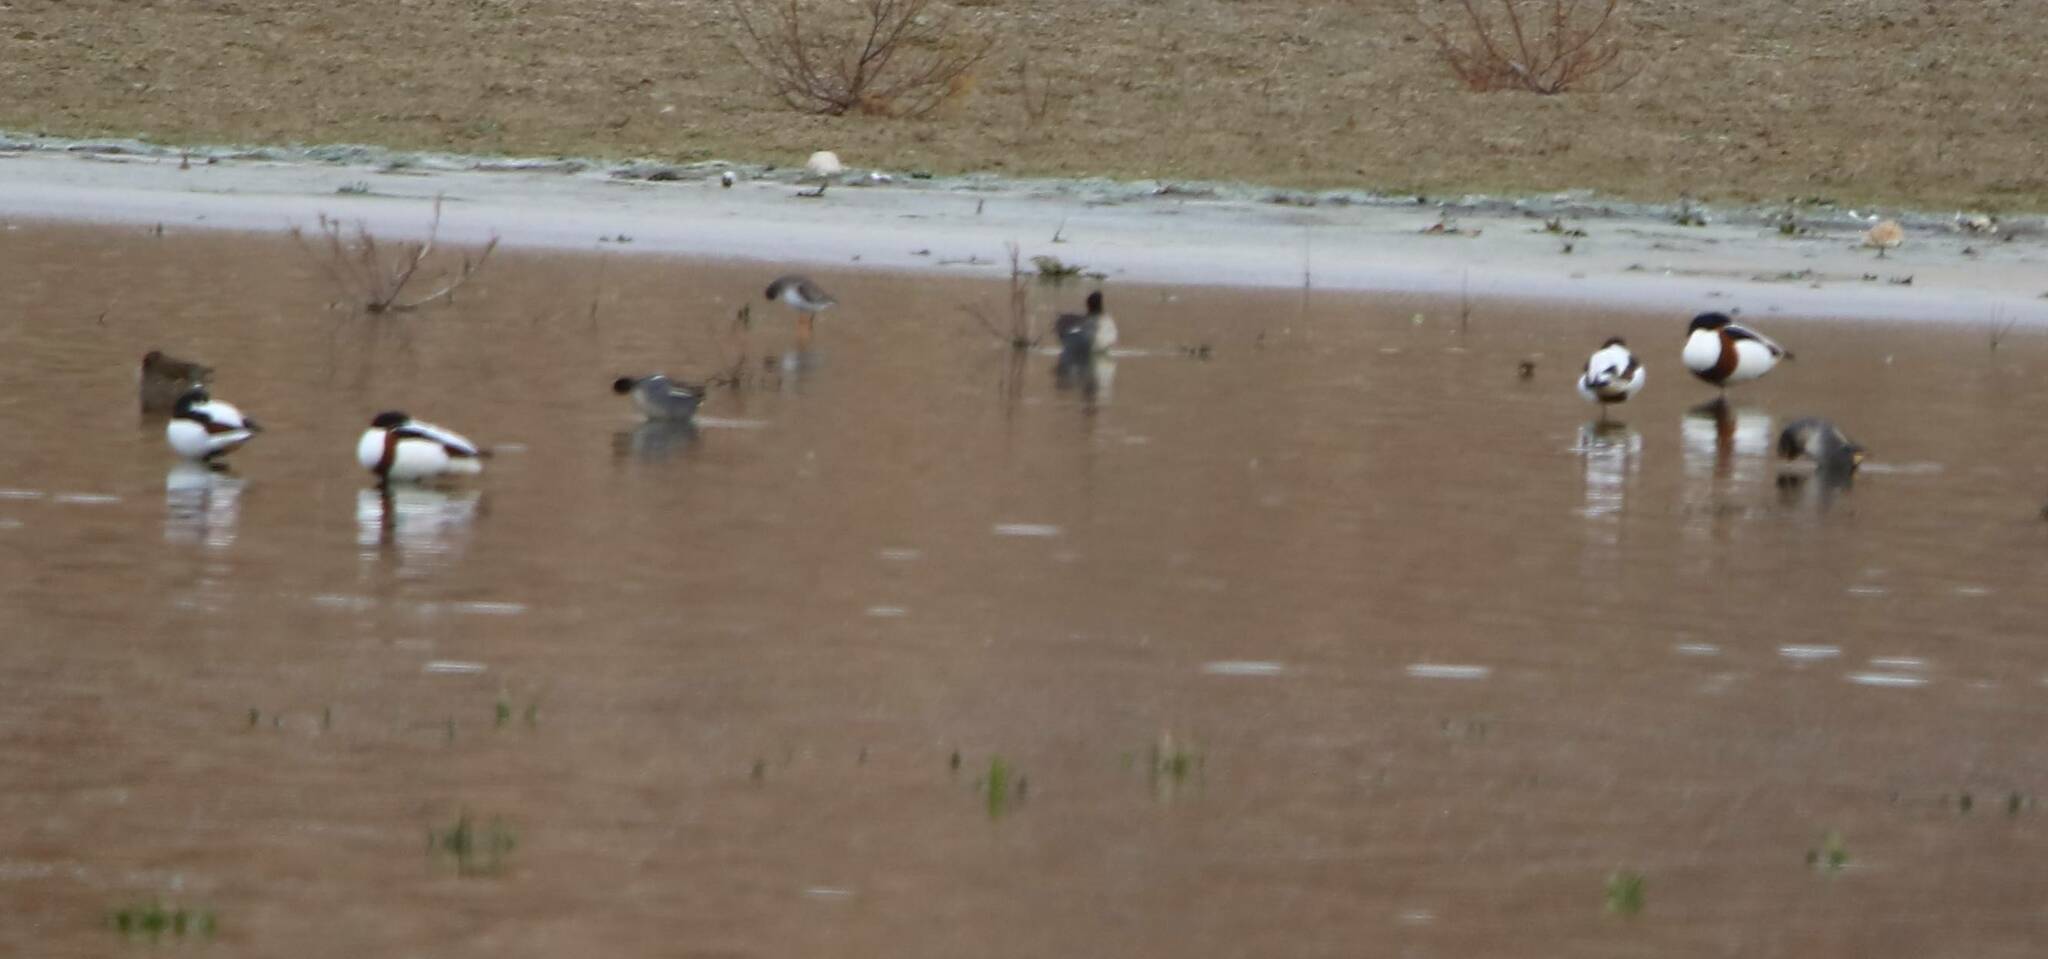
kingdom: Animalia
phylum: Chordata
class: Aves
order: Anseriformes
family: Anatidae
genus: Tadorna
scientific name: Tadorna tadorna
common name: Common shelduck
